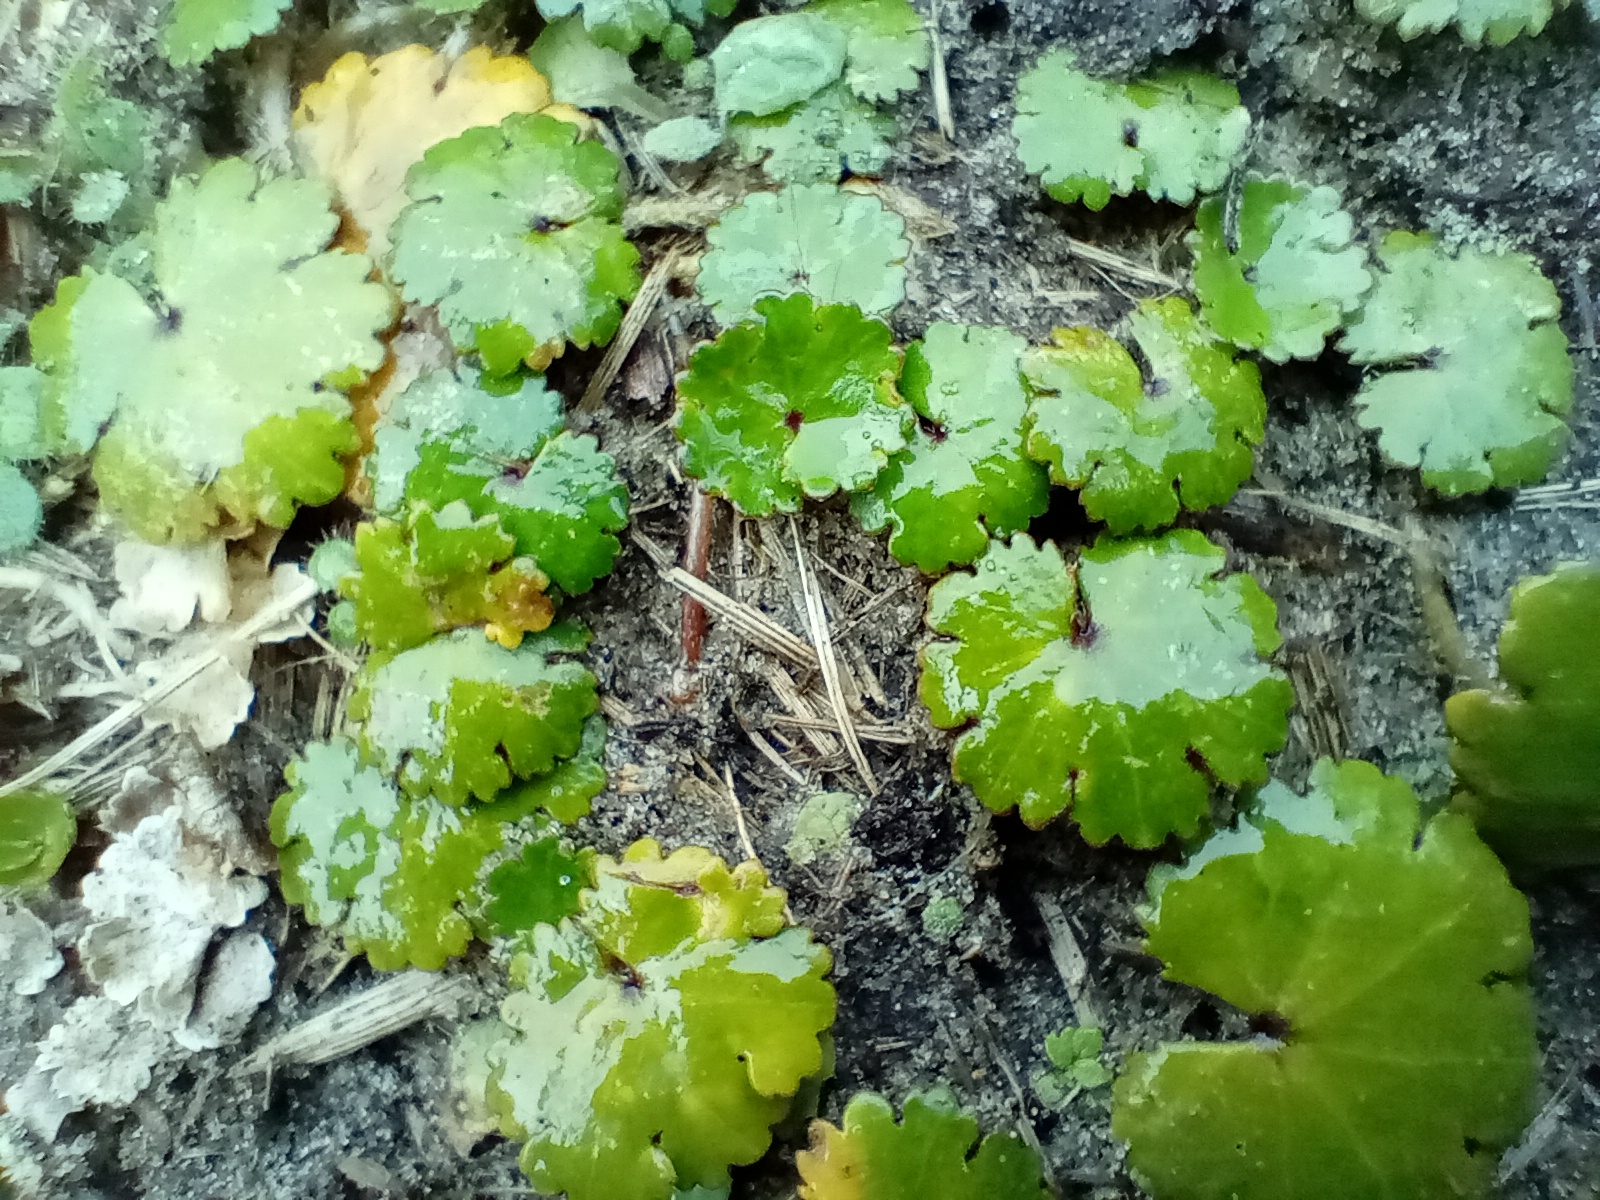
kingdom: Plantae
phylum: Tracheophyta
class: Magnoliopsida
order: Apiales
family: Araliaceae
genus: Hydrocotyle
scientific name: Hydrocotyle novae-zeelandiae
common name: New zealand pennywort
